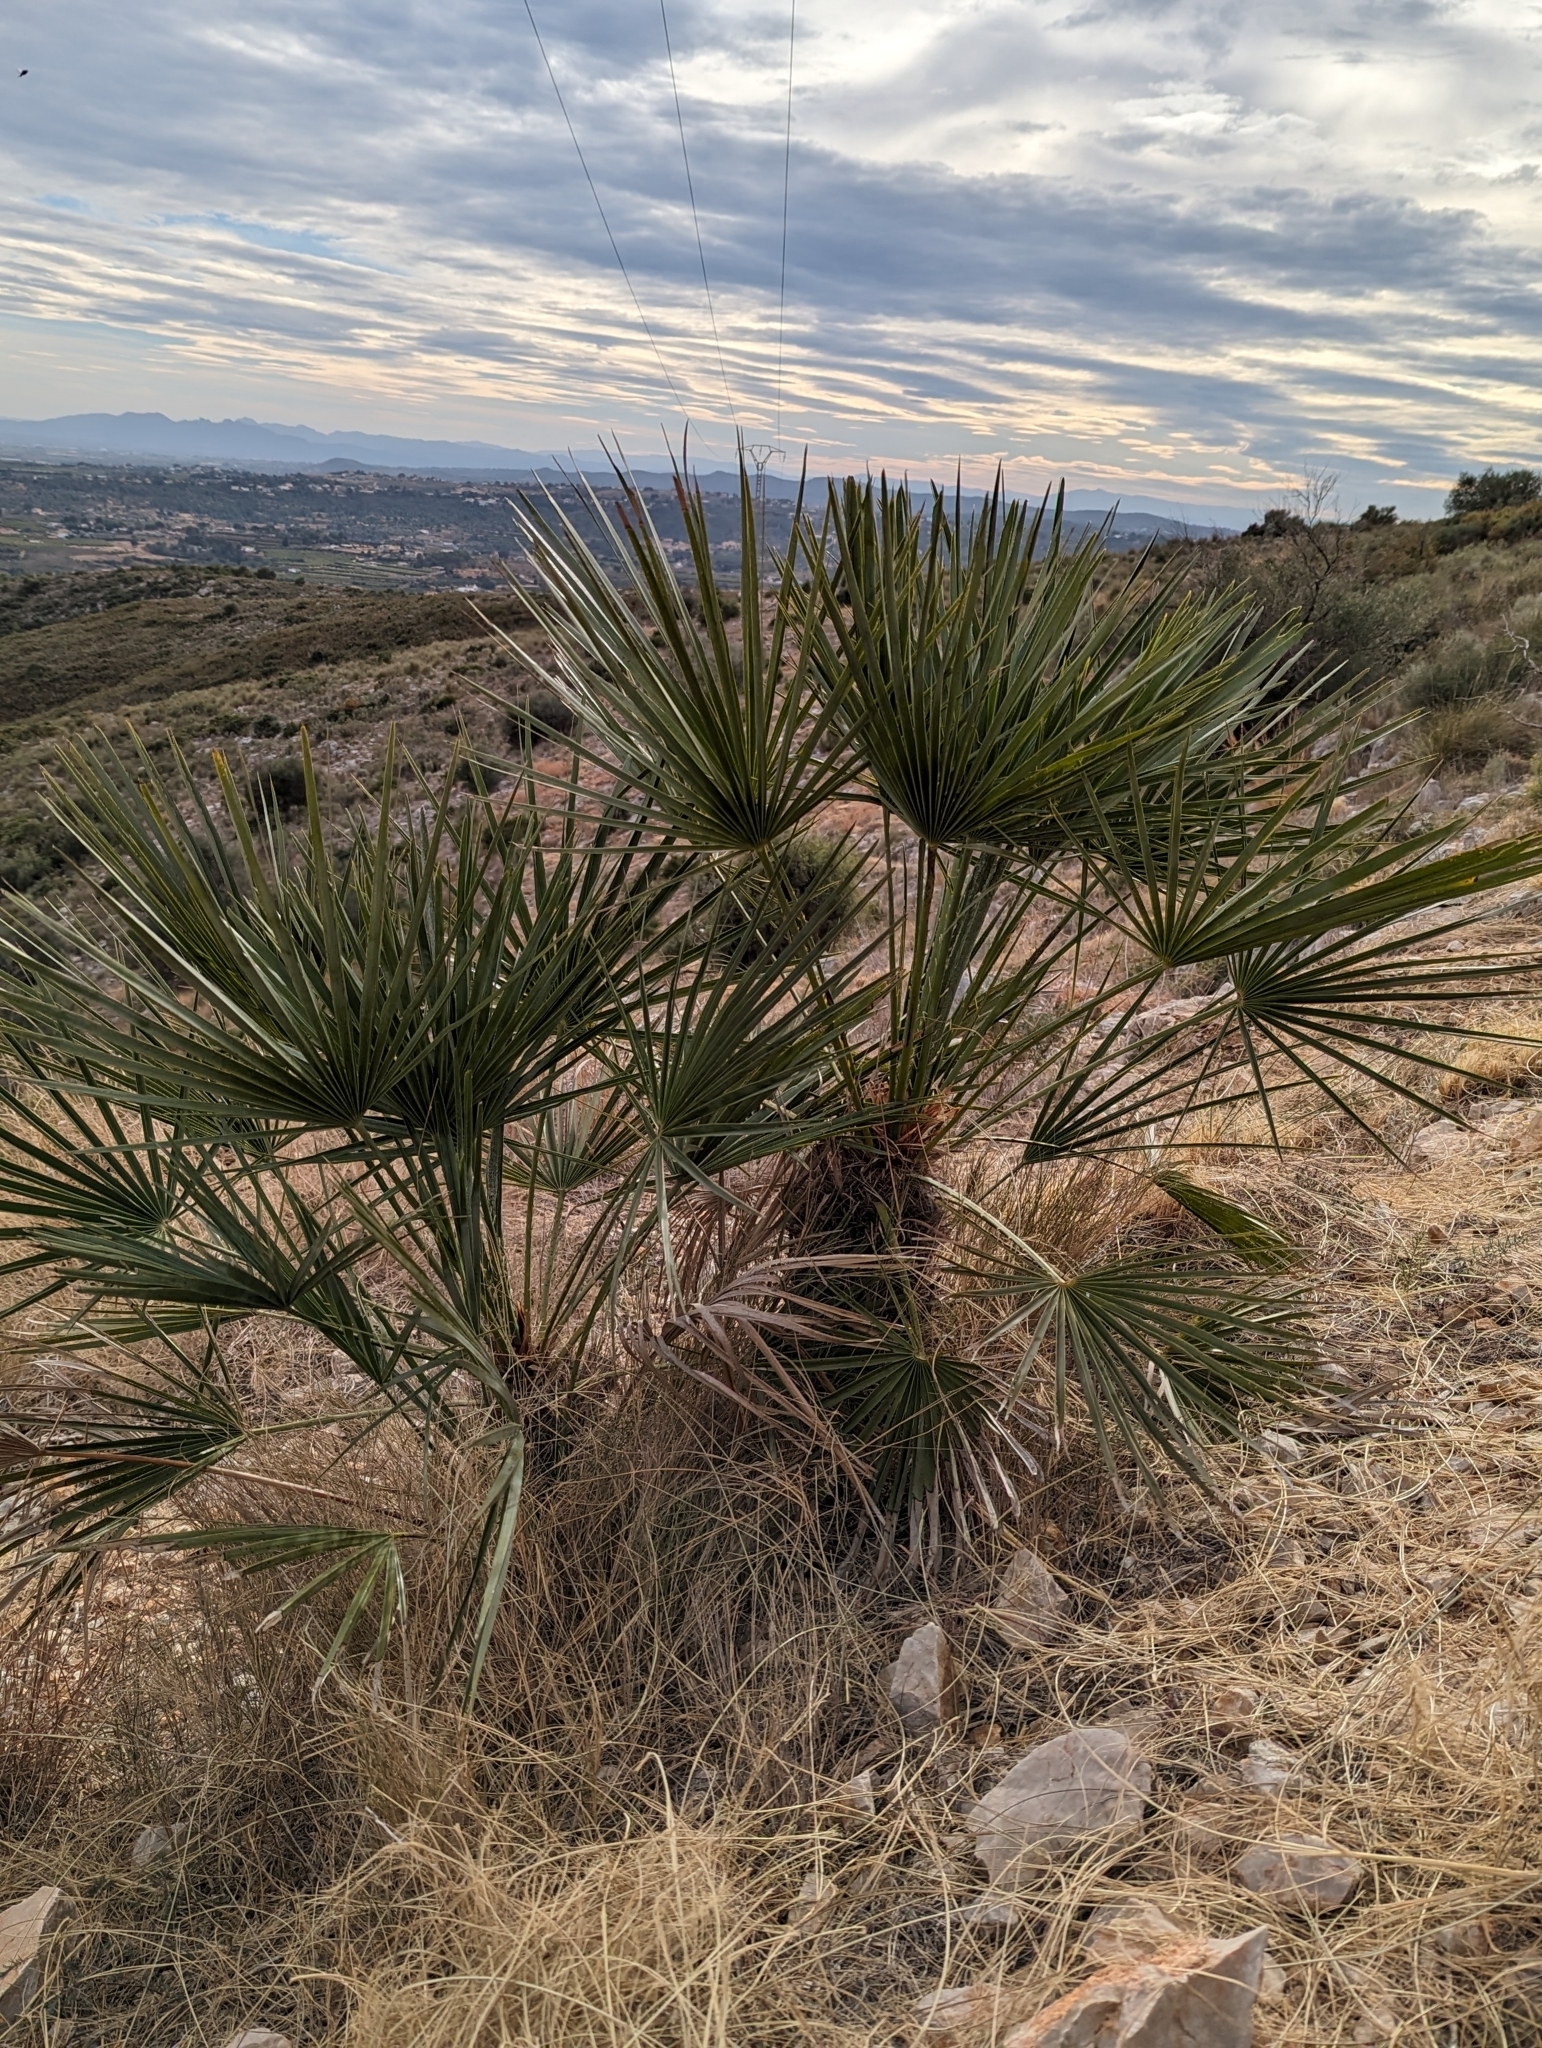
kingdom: Plantae
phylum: Tracheophyta
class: Liliopsida
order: Arecales
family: Arecaceae
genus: Chamaerops
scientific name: Chamaerops humilis
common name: Dwarf fan palm
